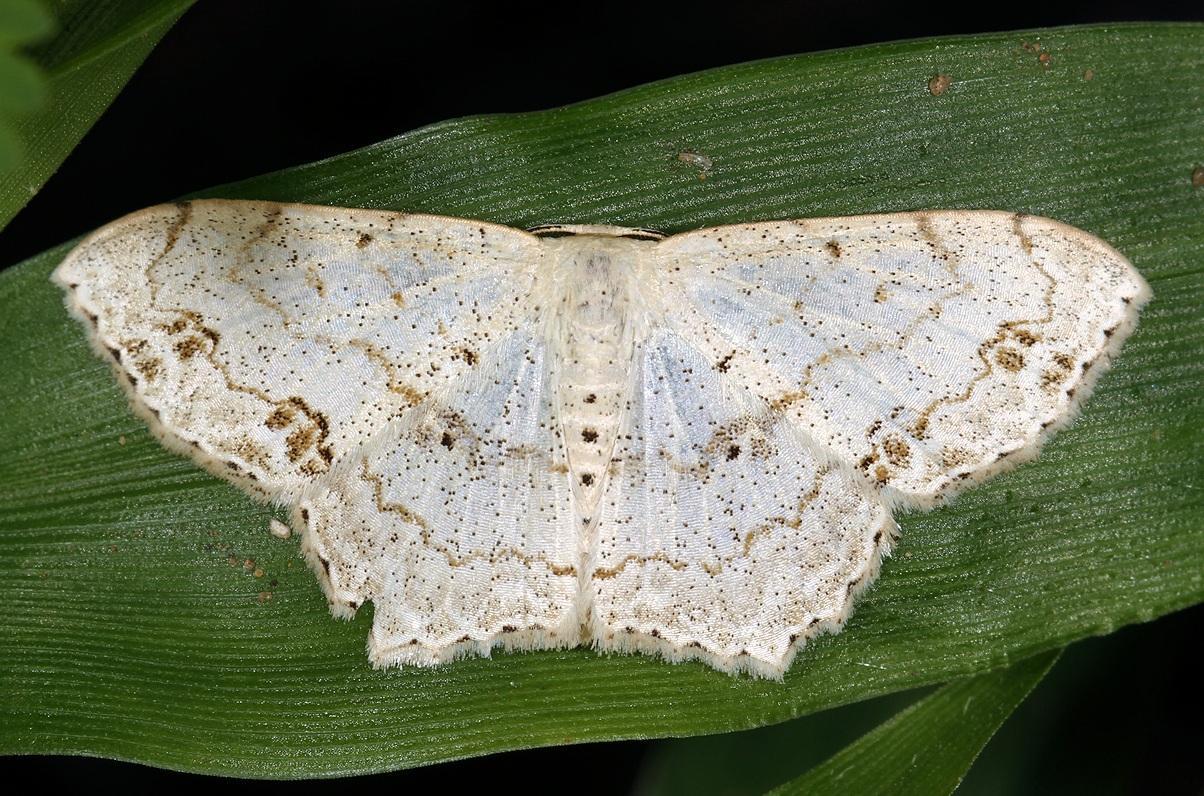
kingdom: Animalia
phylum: Arthropoda
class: Insecta
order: Lepidoptera
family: Geometridae
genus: Scopula
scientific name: Scopula fimbrilineata
